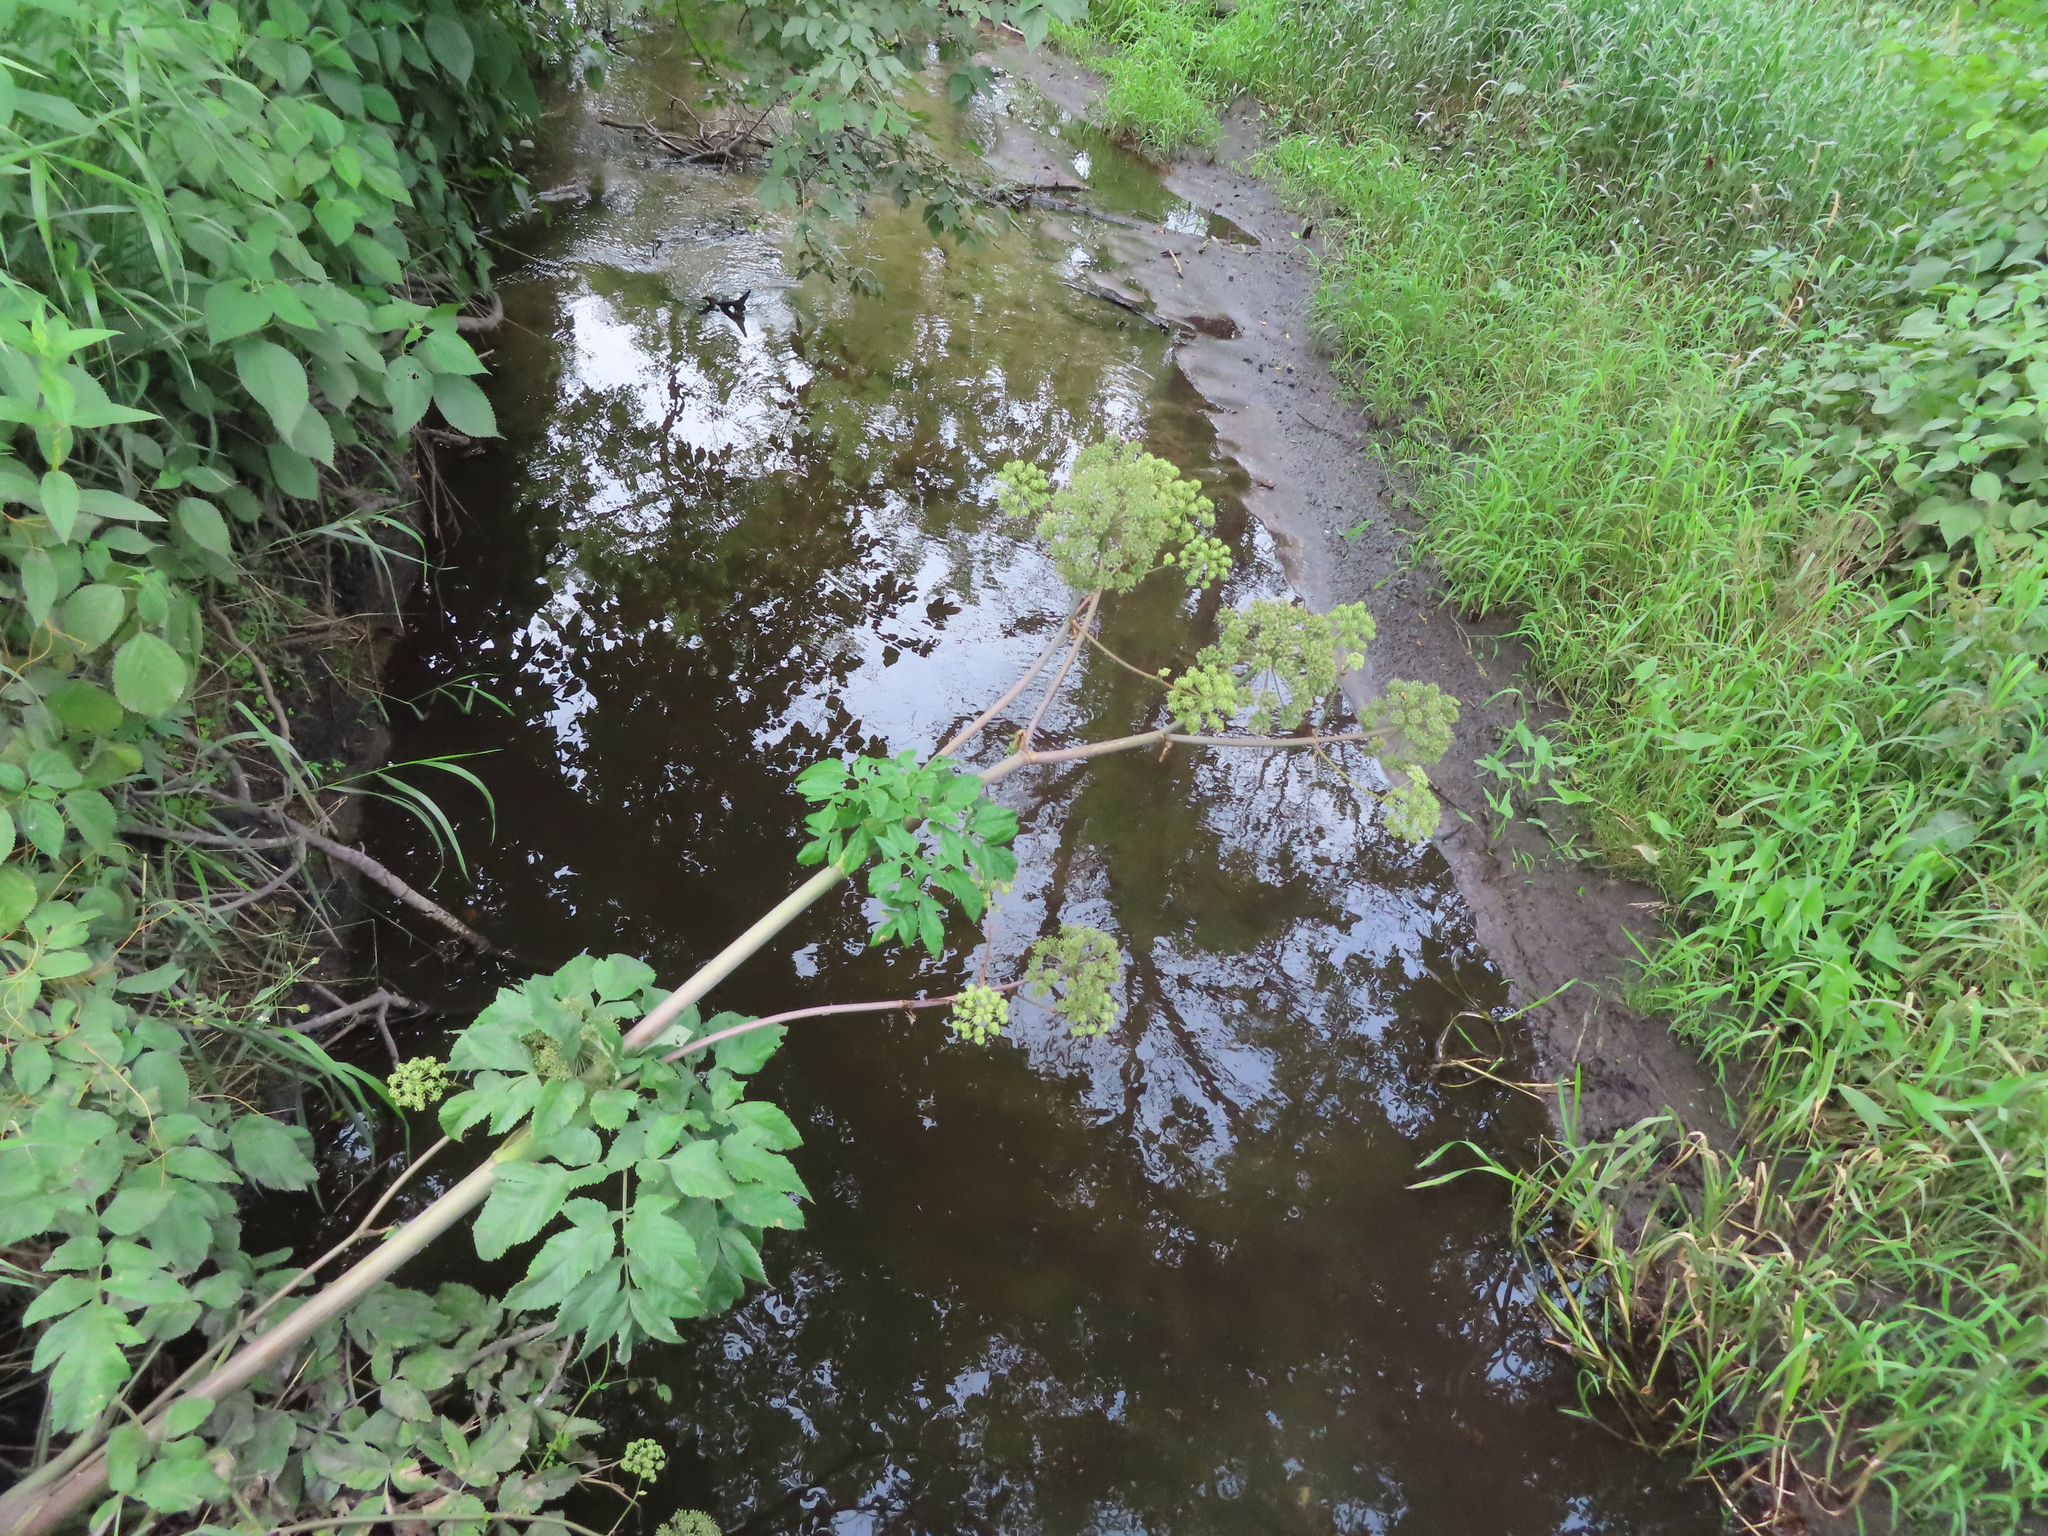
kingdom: Plantae
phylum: Tracheophyta
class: Magnoliopsida
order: Apiales
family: Apiaceae
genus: Angelica
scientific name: Angelica atropurpurea
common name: Great angelica
